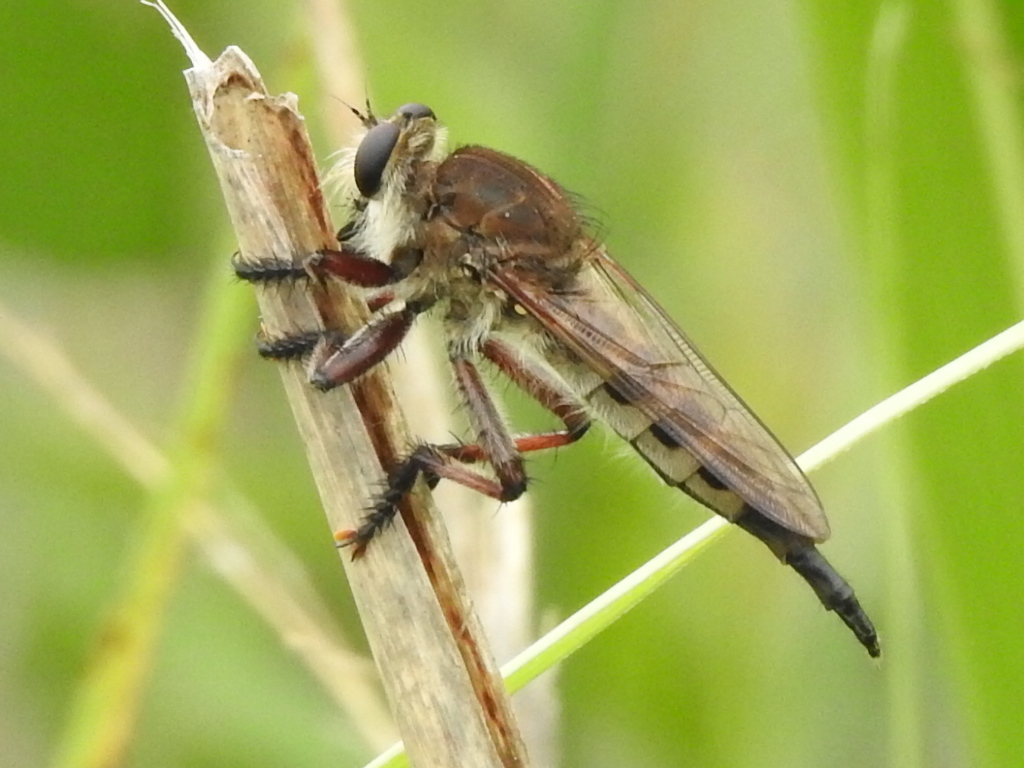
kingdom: Animalia
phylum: Arthropoda
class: Insecta
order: Diptera
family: Asilidae
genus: Promachus
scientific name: Promachus hinei
